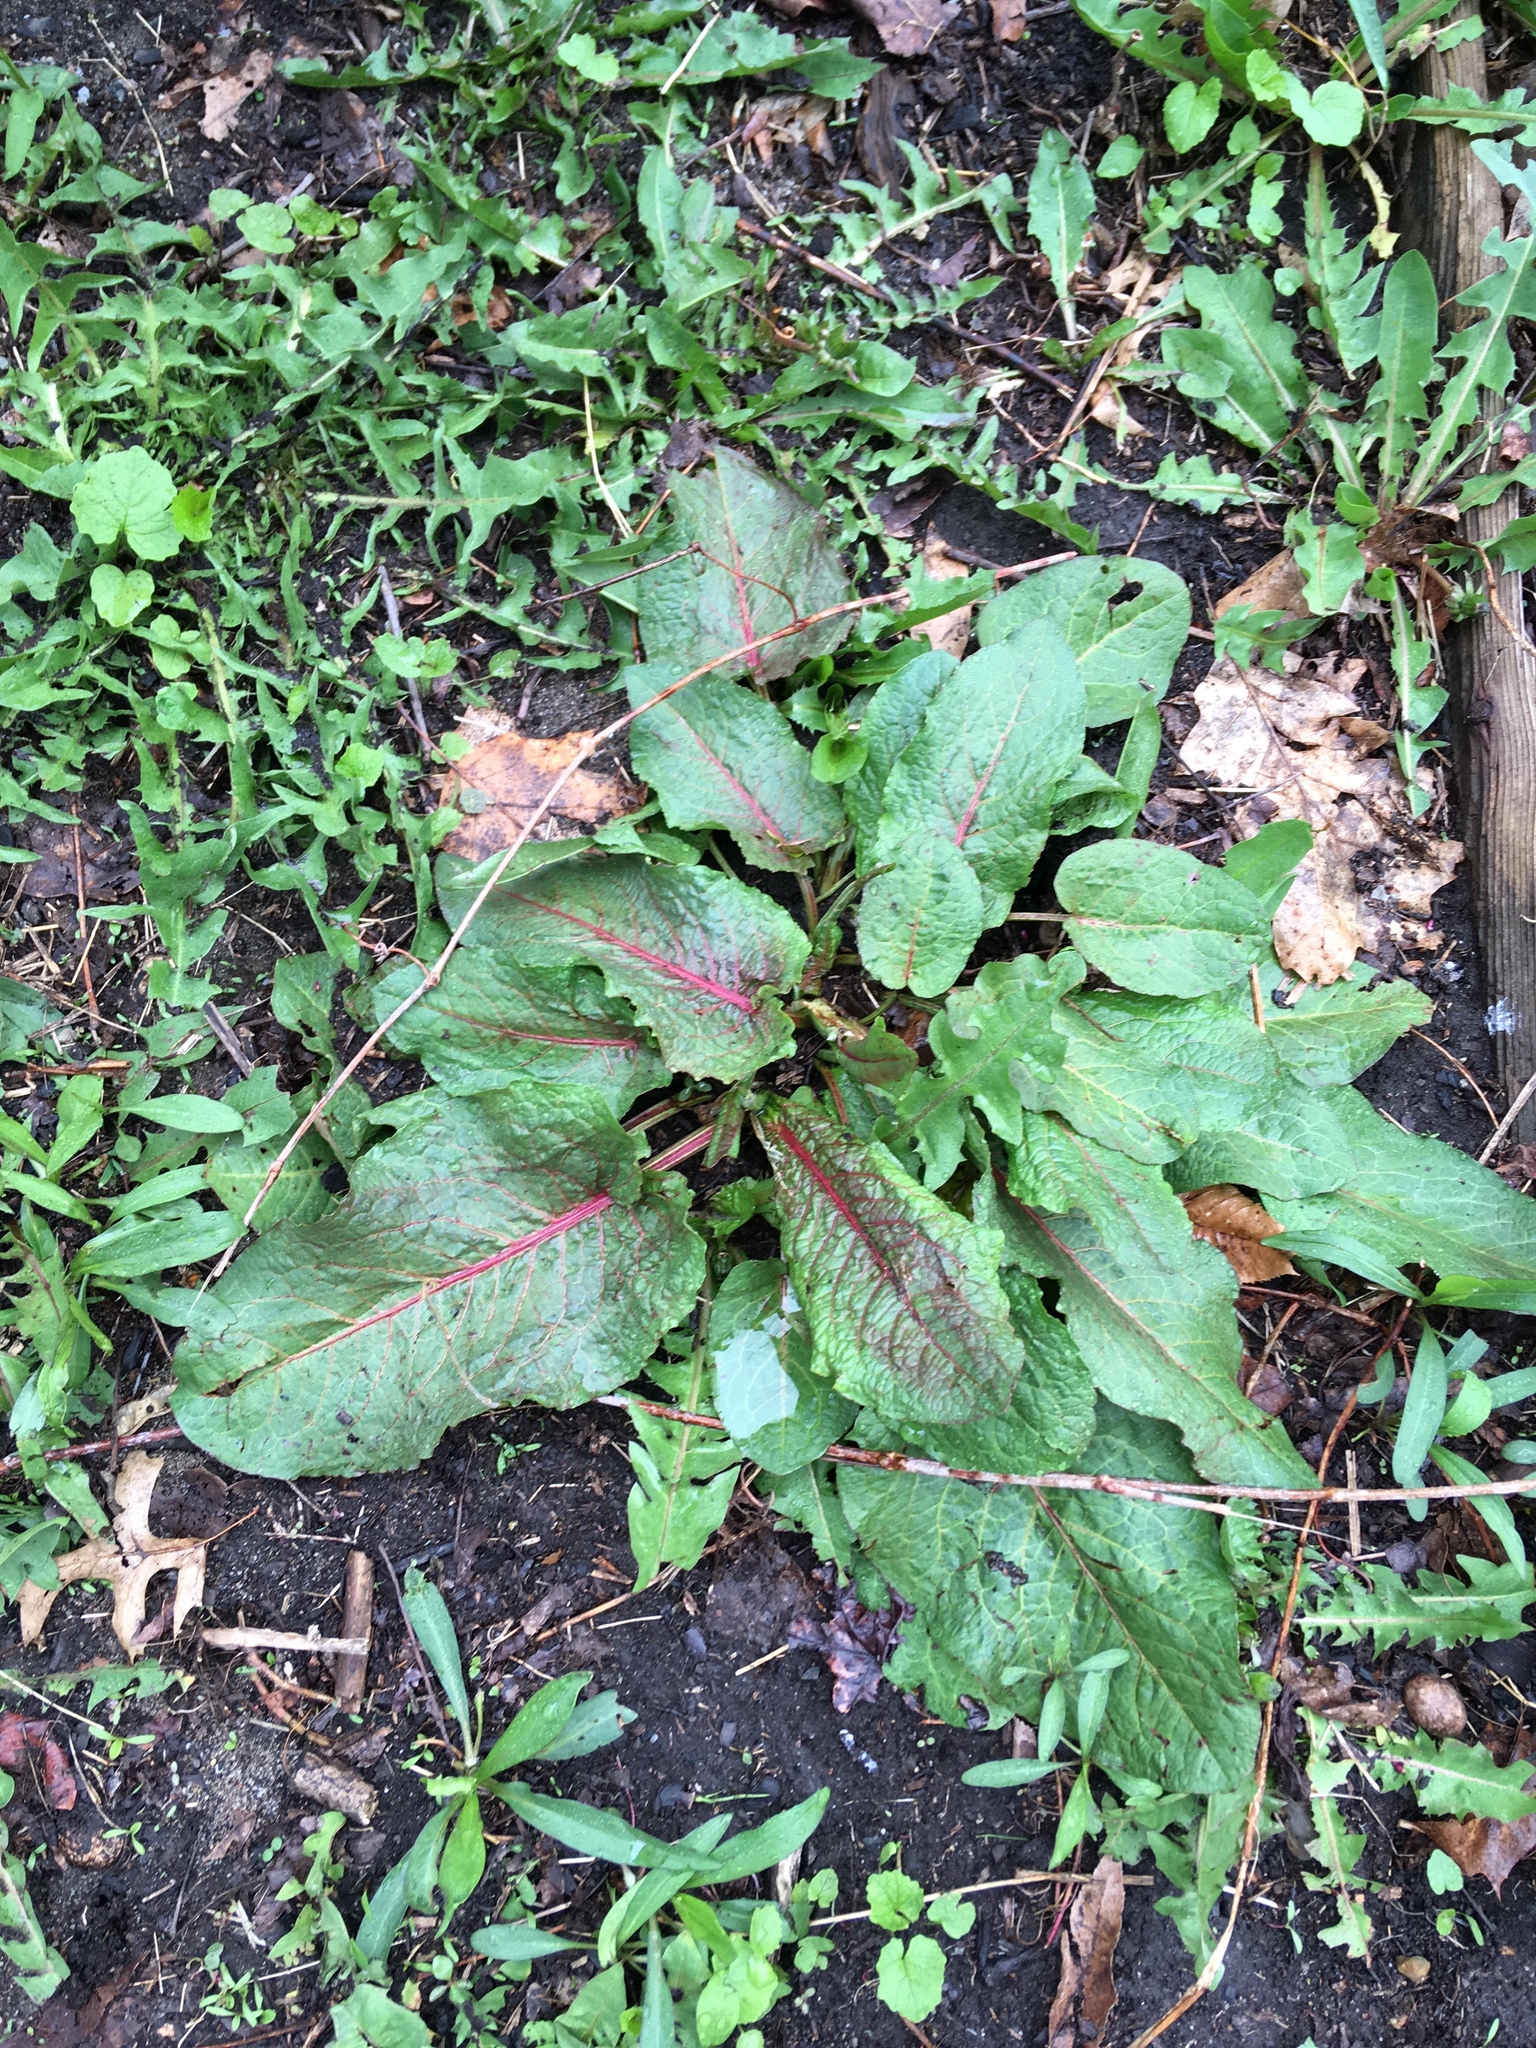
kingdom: Plantae
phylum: Tracheophyta
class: Magnoliopsida
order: Caryophyllales
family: Polygonaceae
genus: Rumex
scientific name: Rumex obtusifolius
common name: Bitter dock
